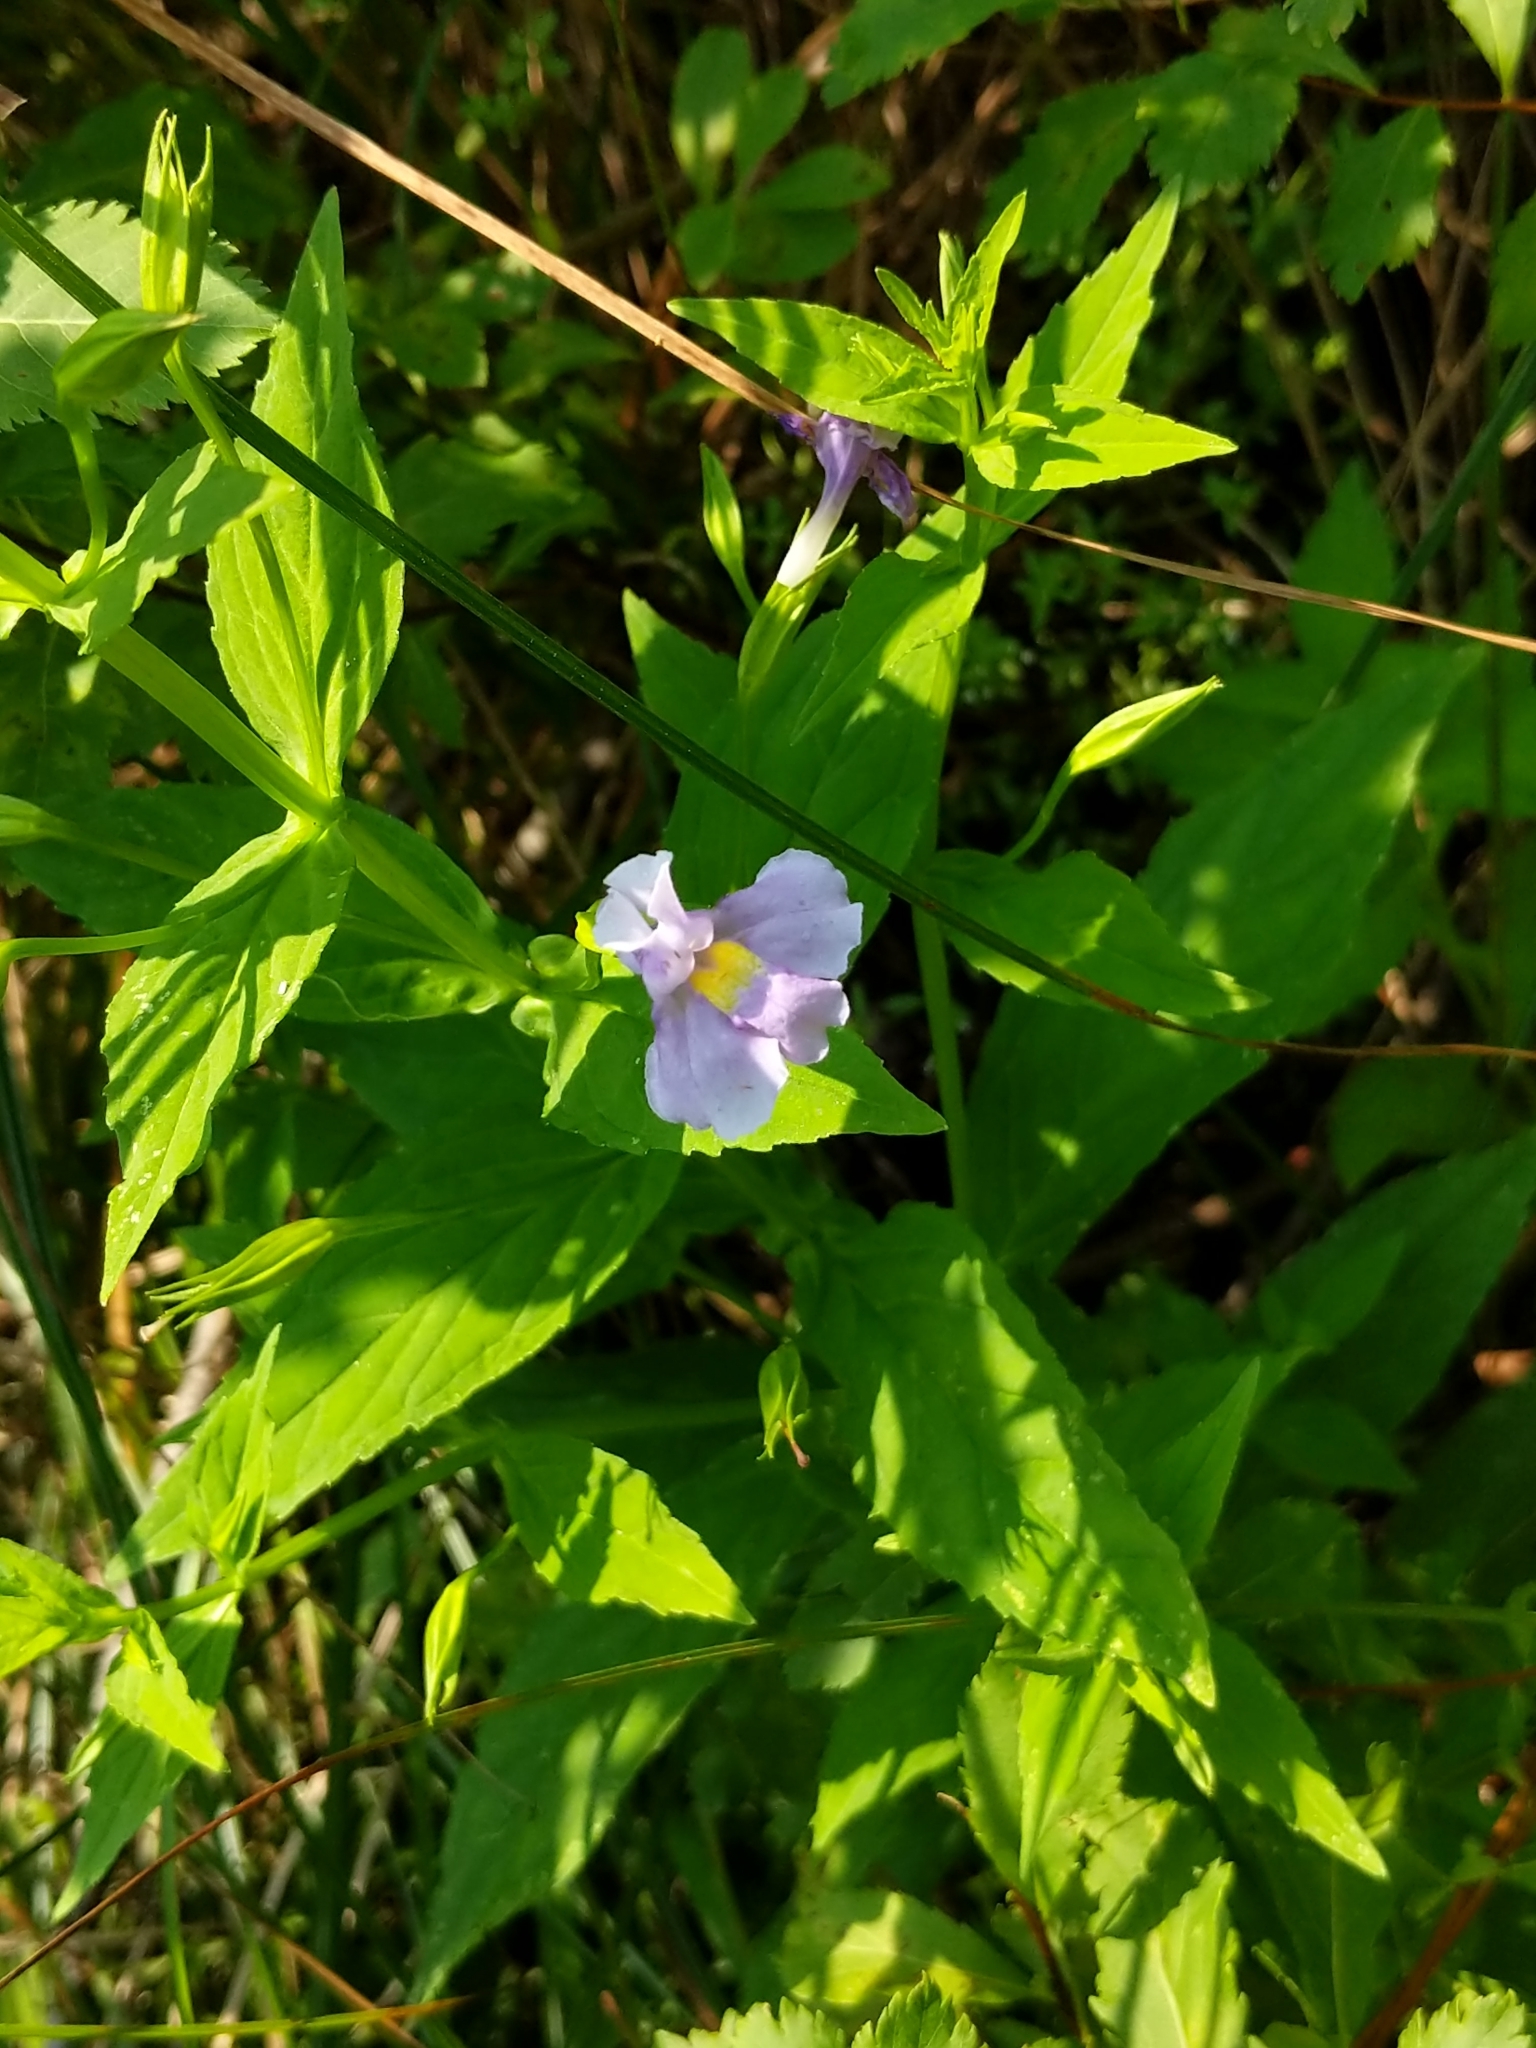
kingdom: Plantae
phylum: Tracheophyta
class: Magnoliopsida
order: Lamiales
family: Phrymaceae
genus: Mimulus
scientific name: Mimulus ringens
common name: Allegheny monkeyflower
